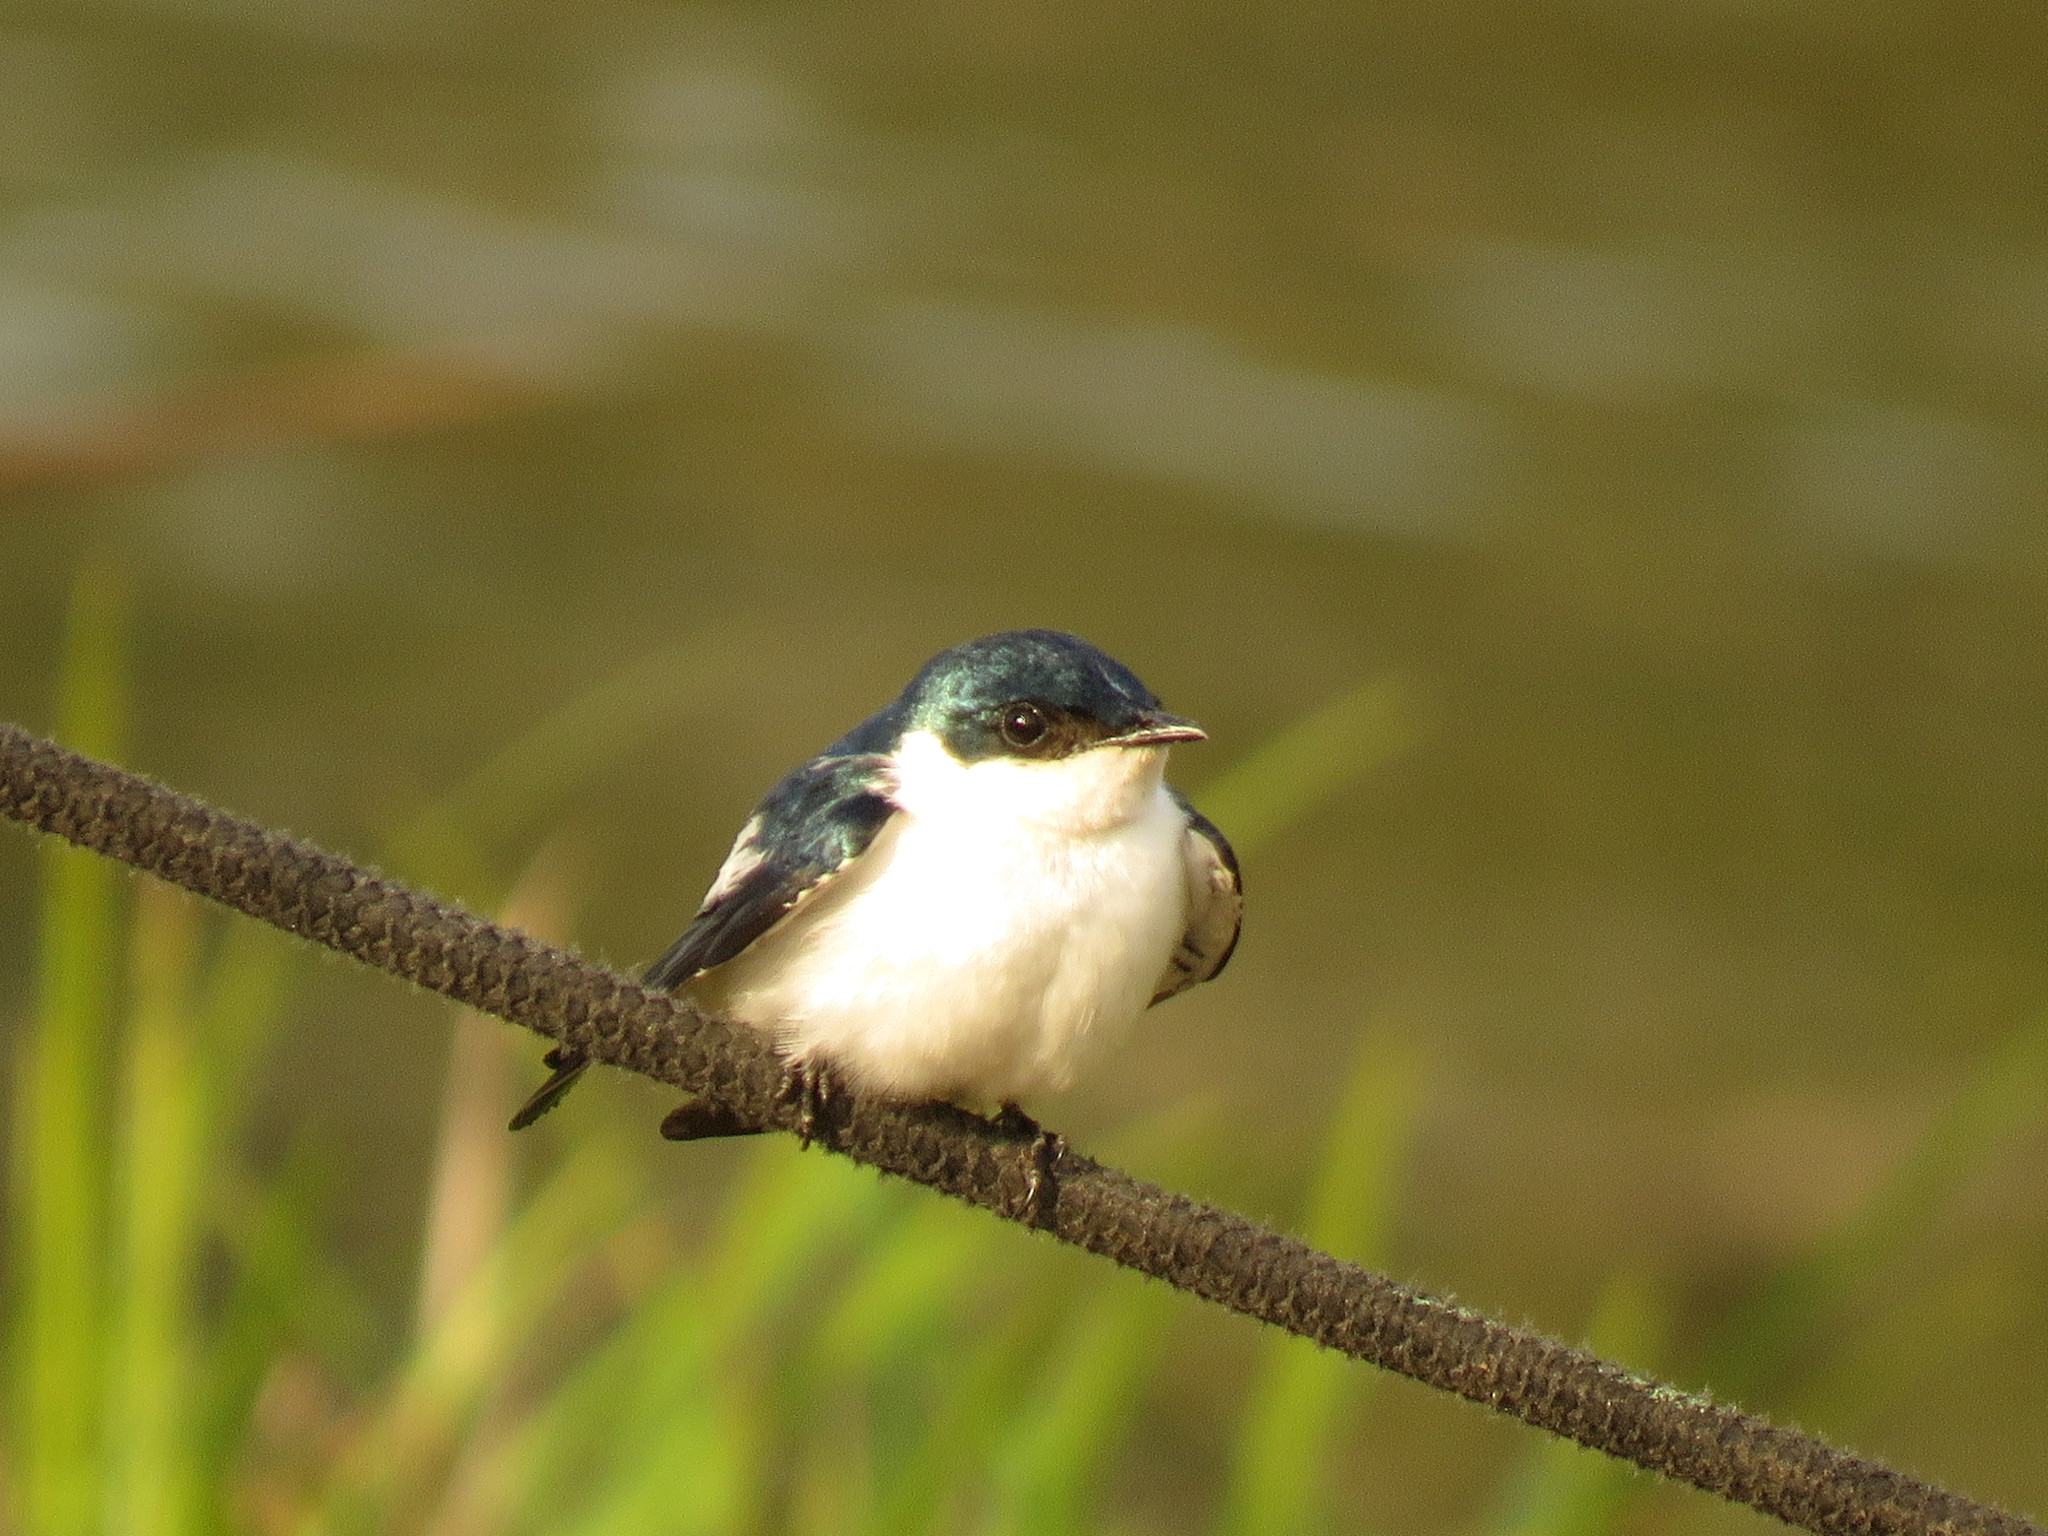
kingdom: Animalia
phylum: Chordata
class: Aves
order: Passeriformes
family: Hirundinidae
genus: Tachycineta
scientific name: Tachycineta albiventer
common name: White-winged swallow
